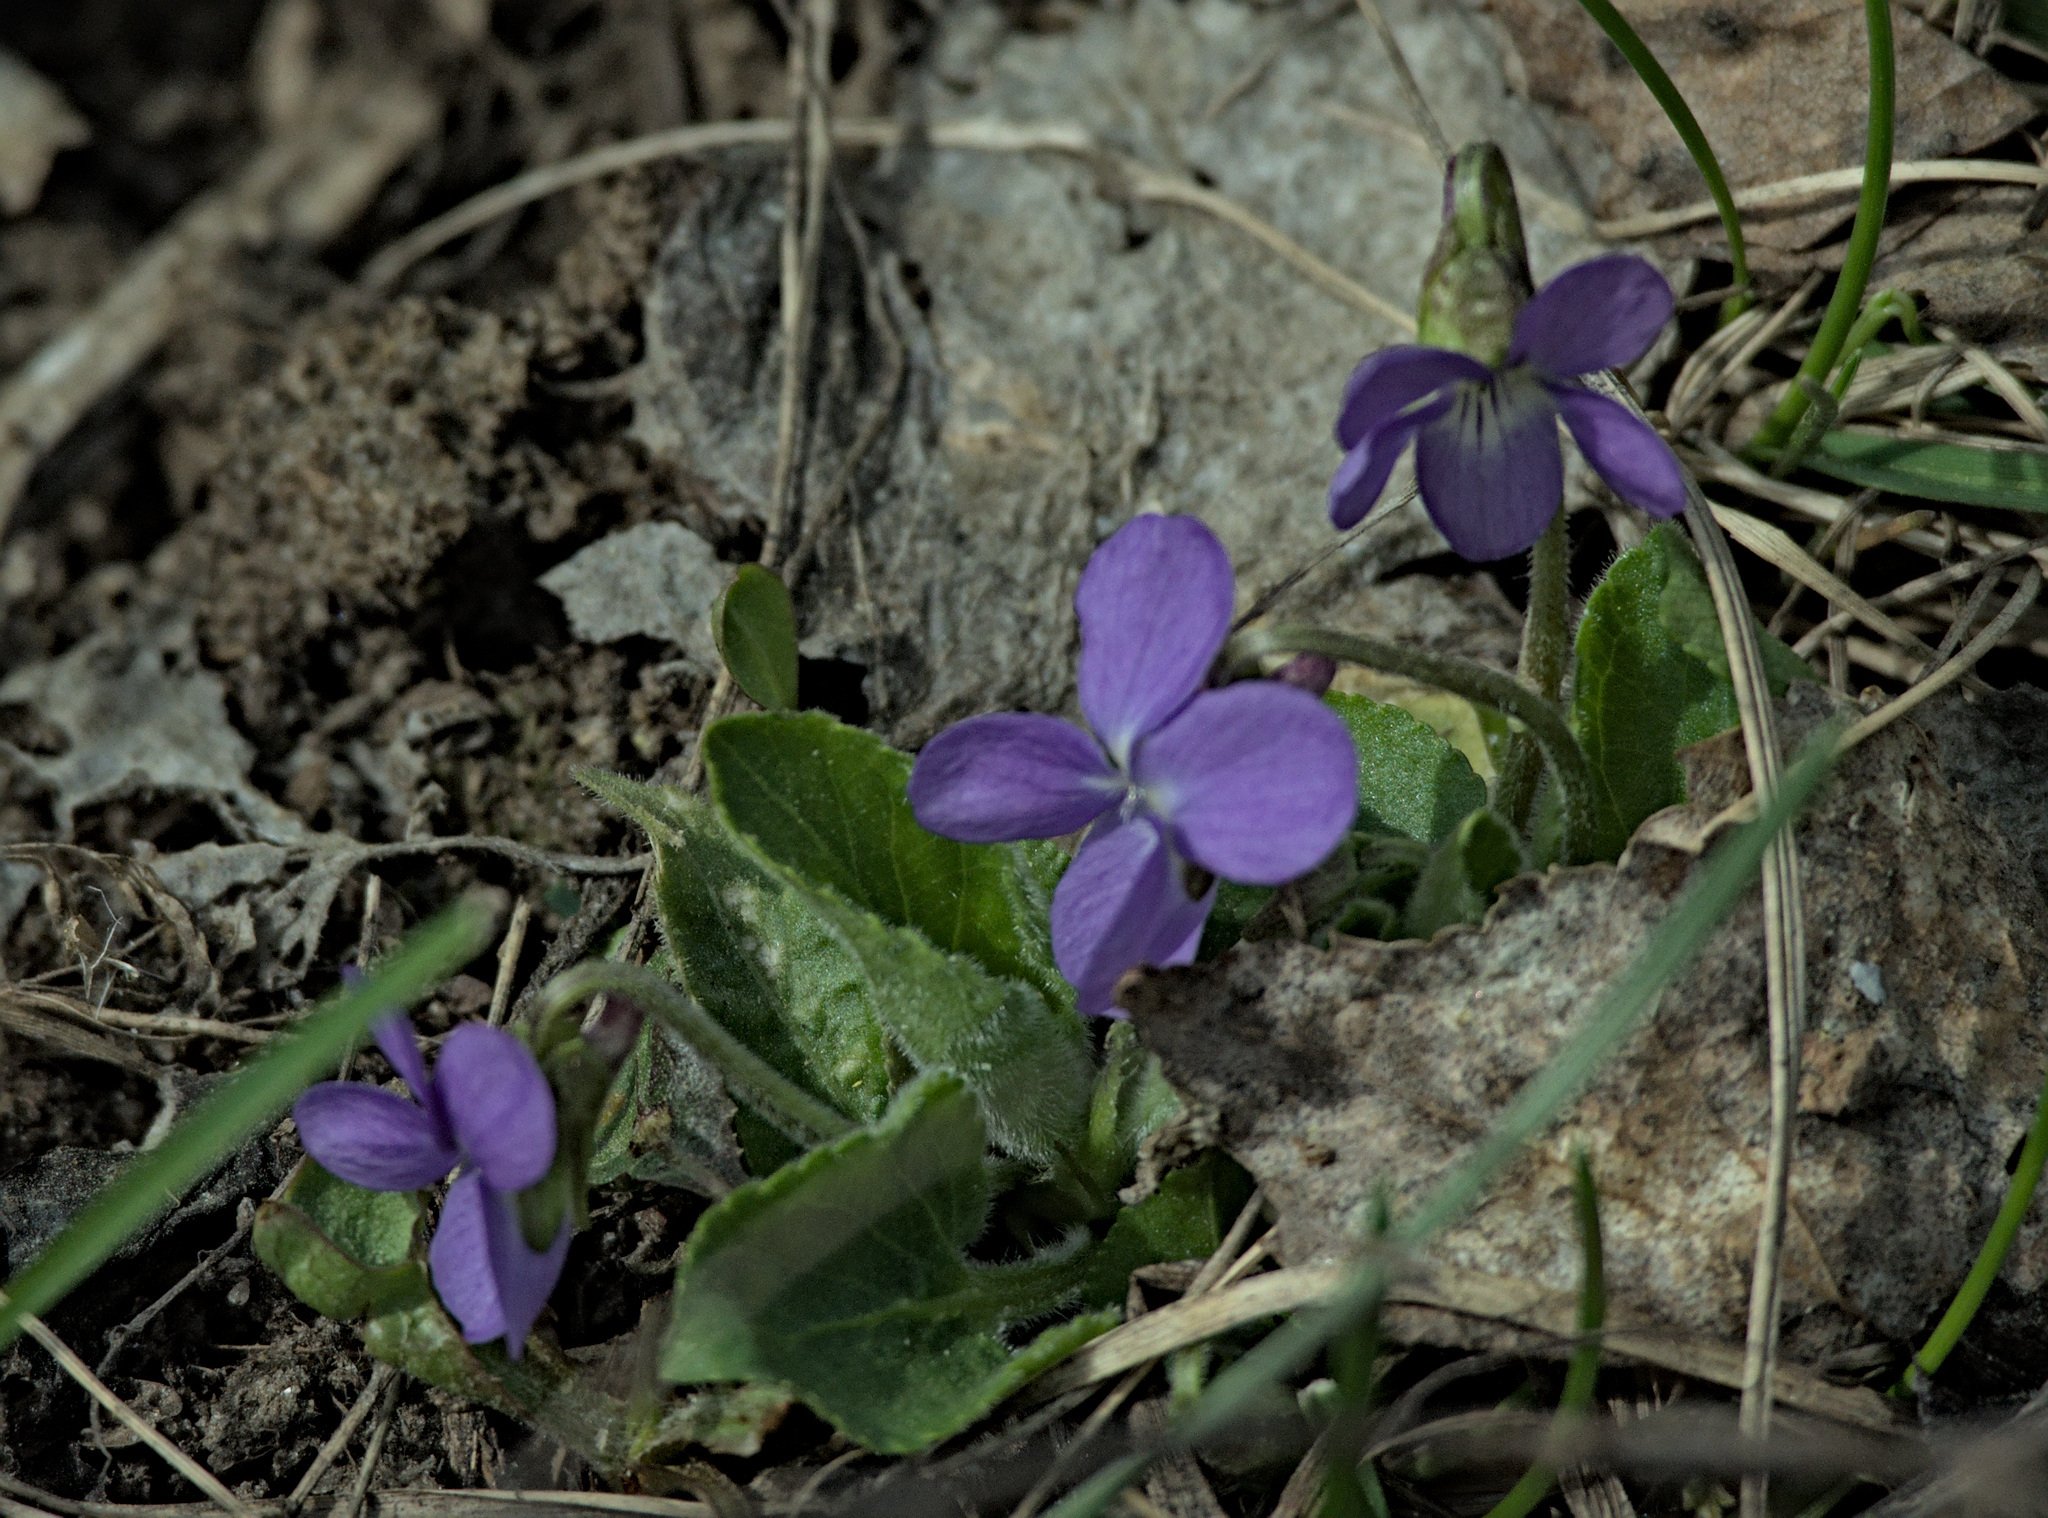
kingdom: Plantae
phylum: Tracheophyta
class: Magnoliopsida
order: Malpighiales
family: Violaceae
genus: Viola
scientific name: Viola hirta
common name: Hairy violet
